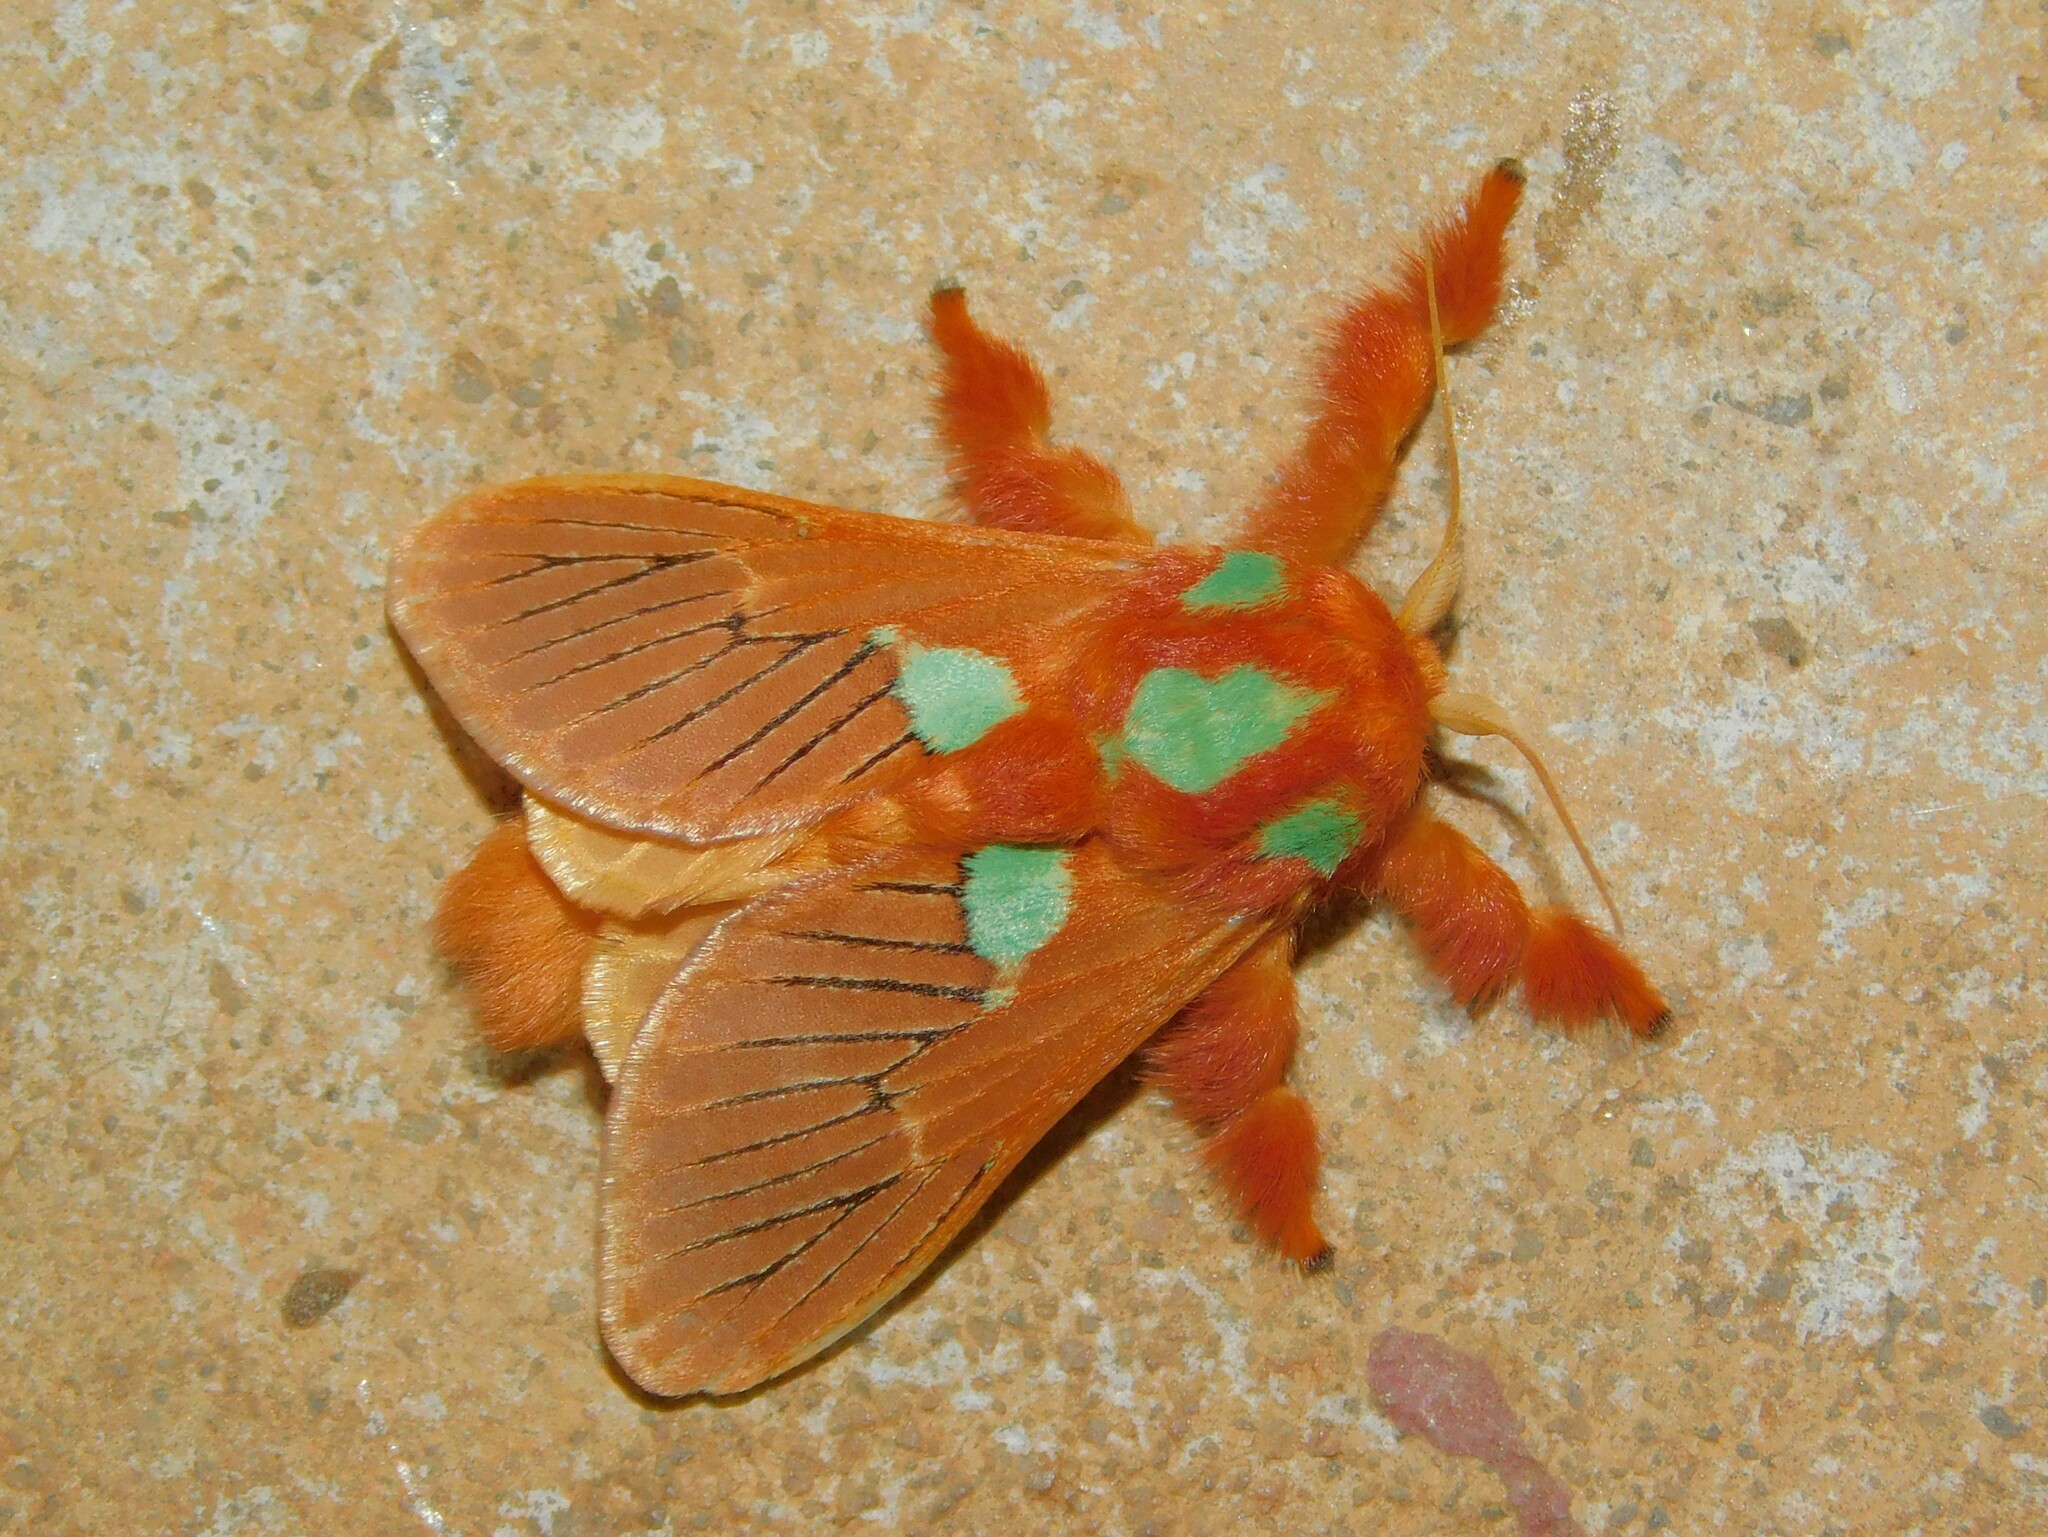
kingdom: Animalia
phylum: Arthropoda
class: Insecta
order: Lepidoptera
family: Limacodidae
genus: Delorhachis
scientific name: Delorhachis meyi
